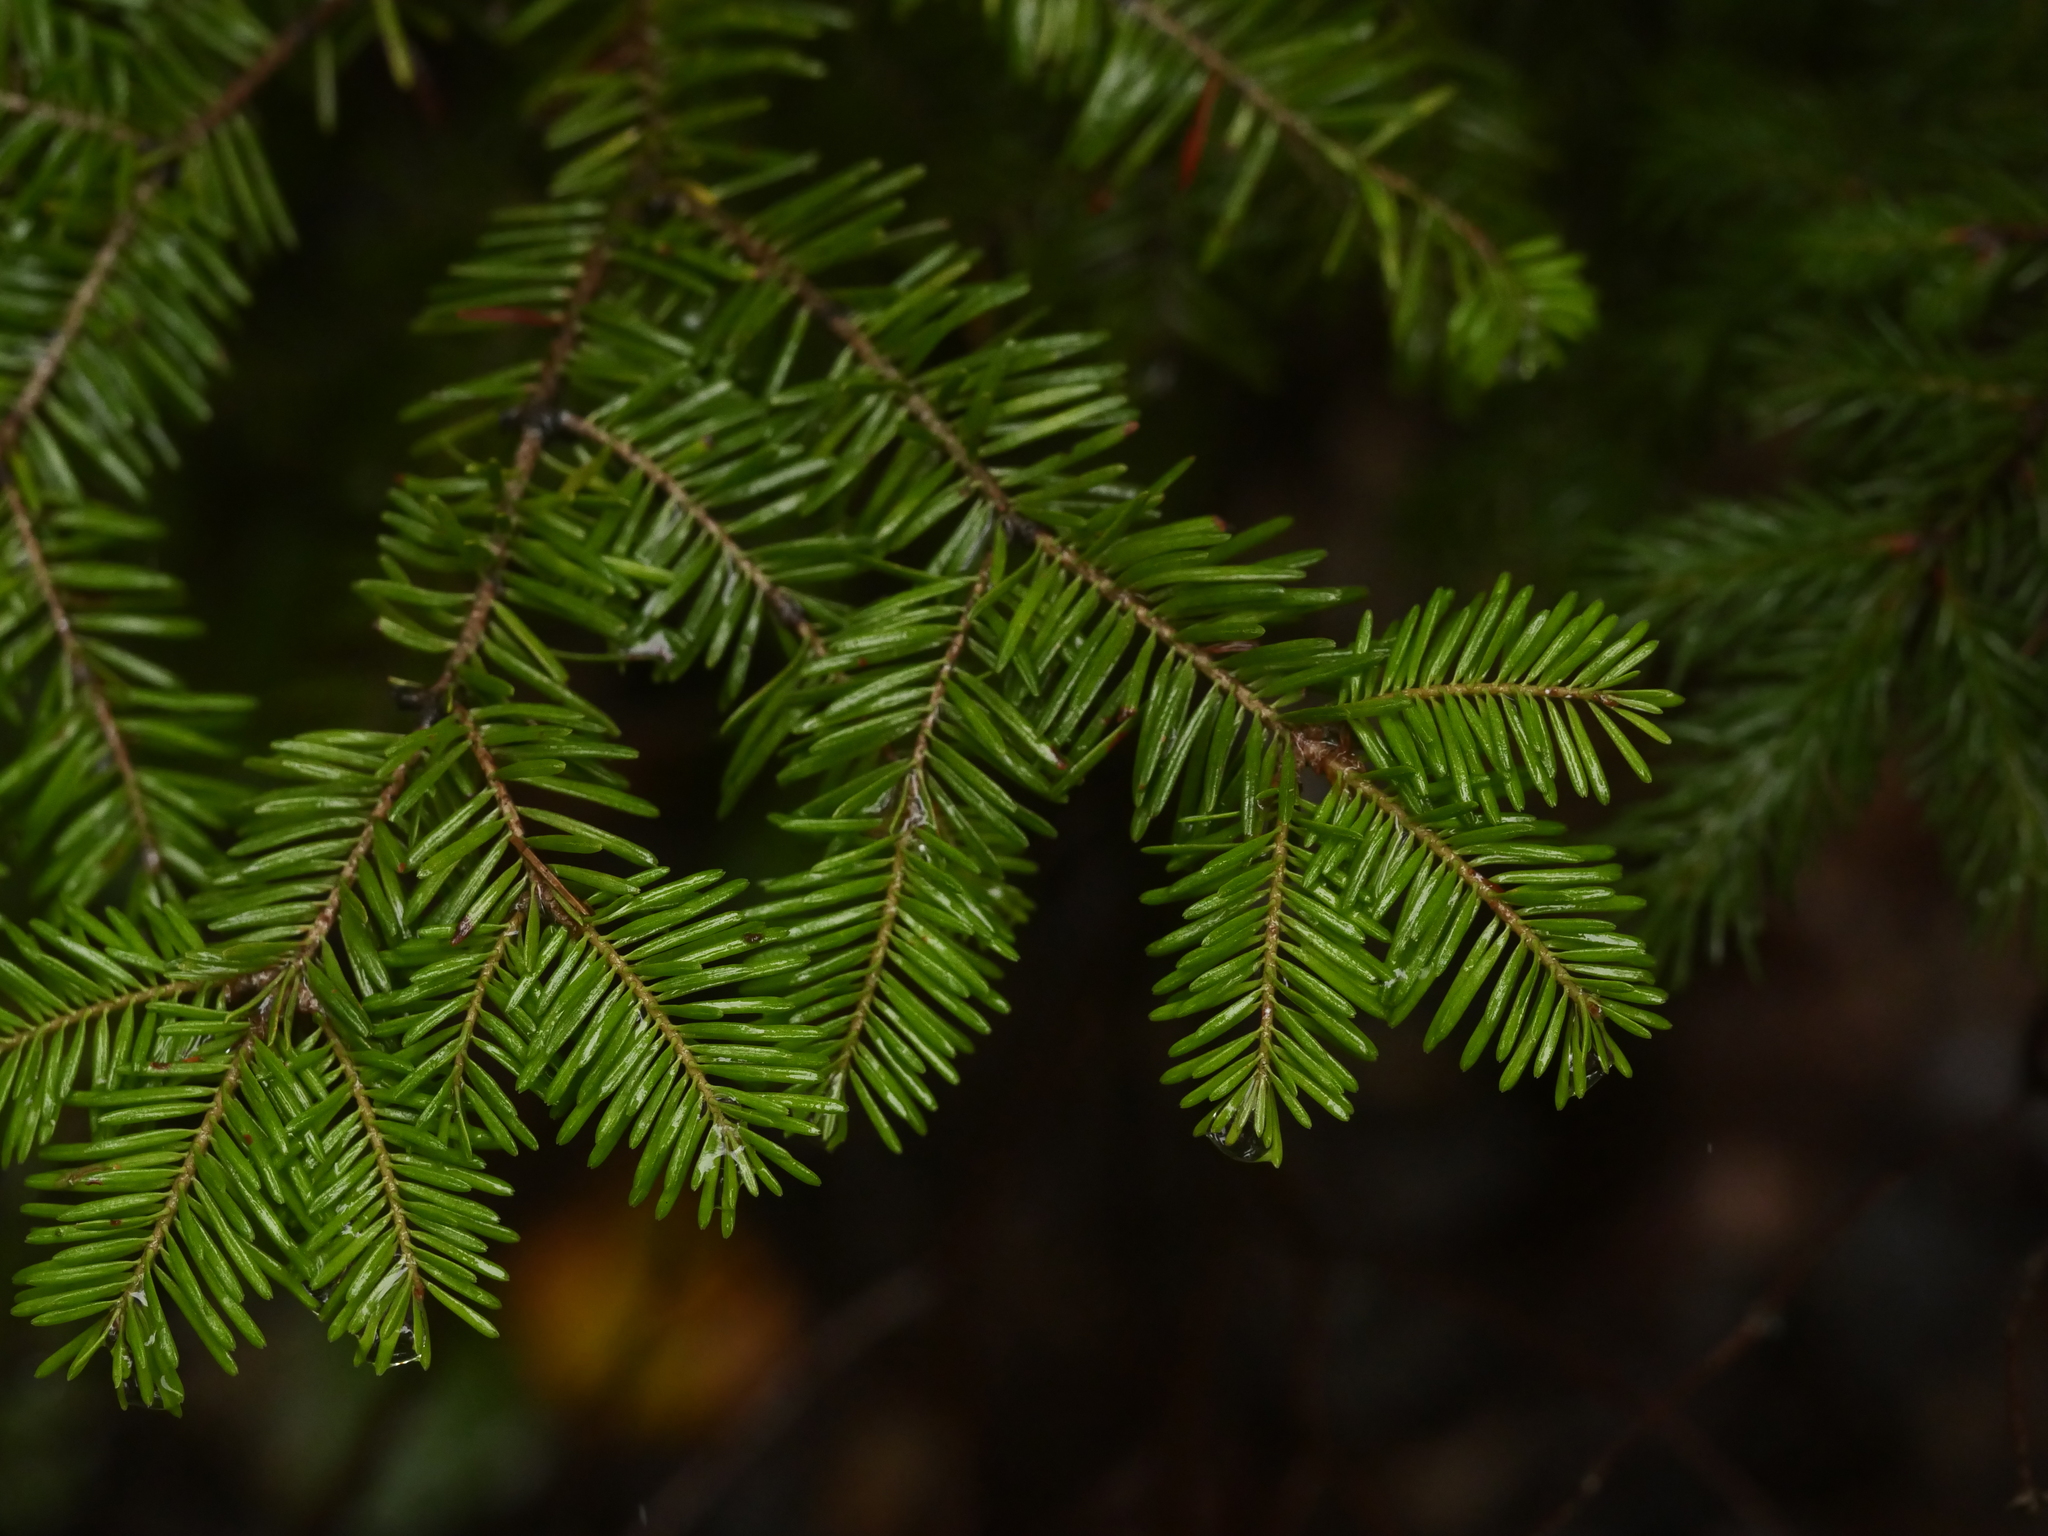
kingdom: Plantae
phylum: Tracheophyta
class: Pinopsida
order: Pinales
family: Pinaceae
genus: Abies
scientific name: Abies balsamea
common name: Balsam fir
